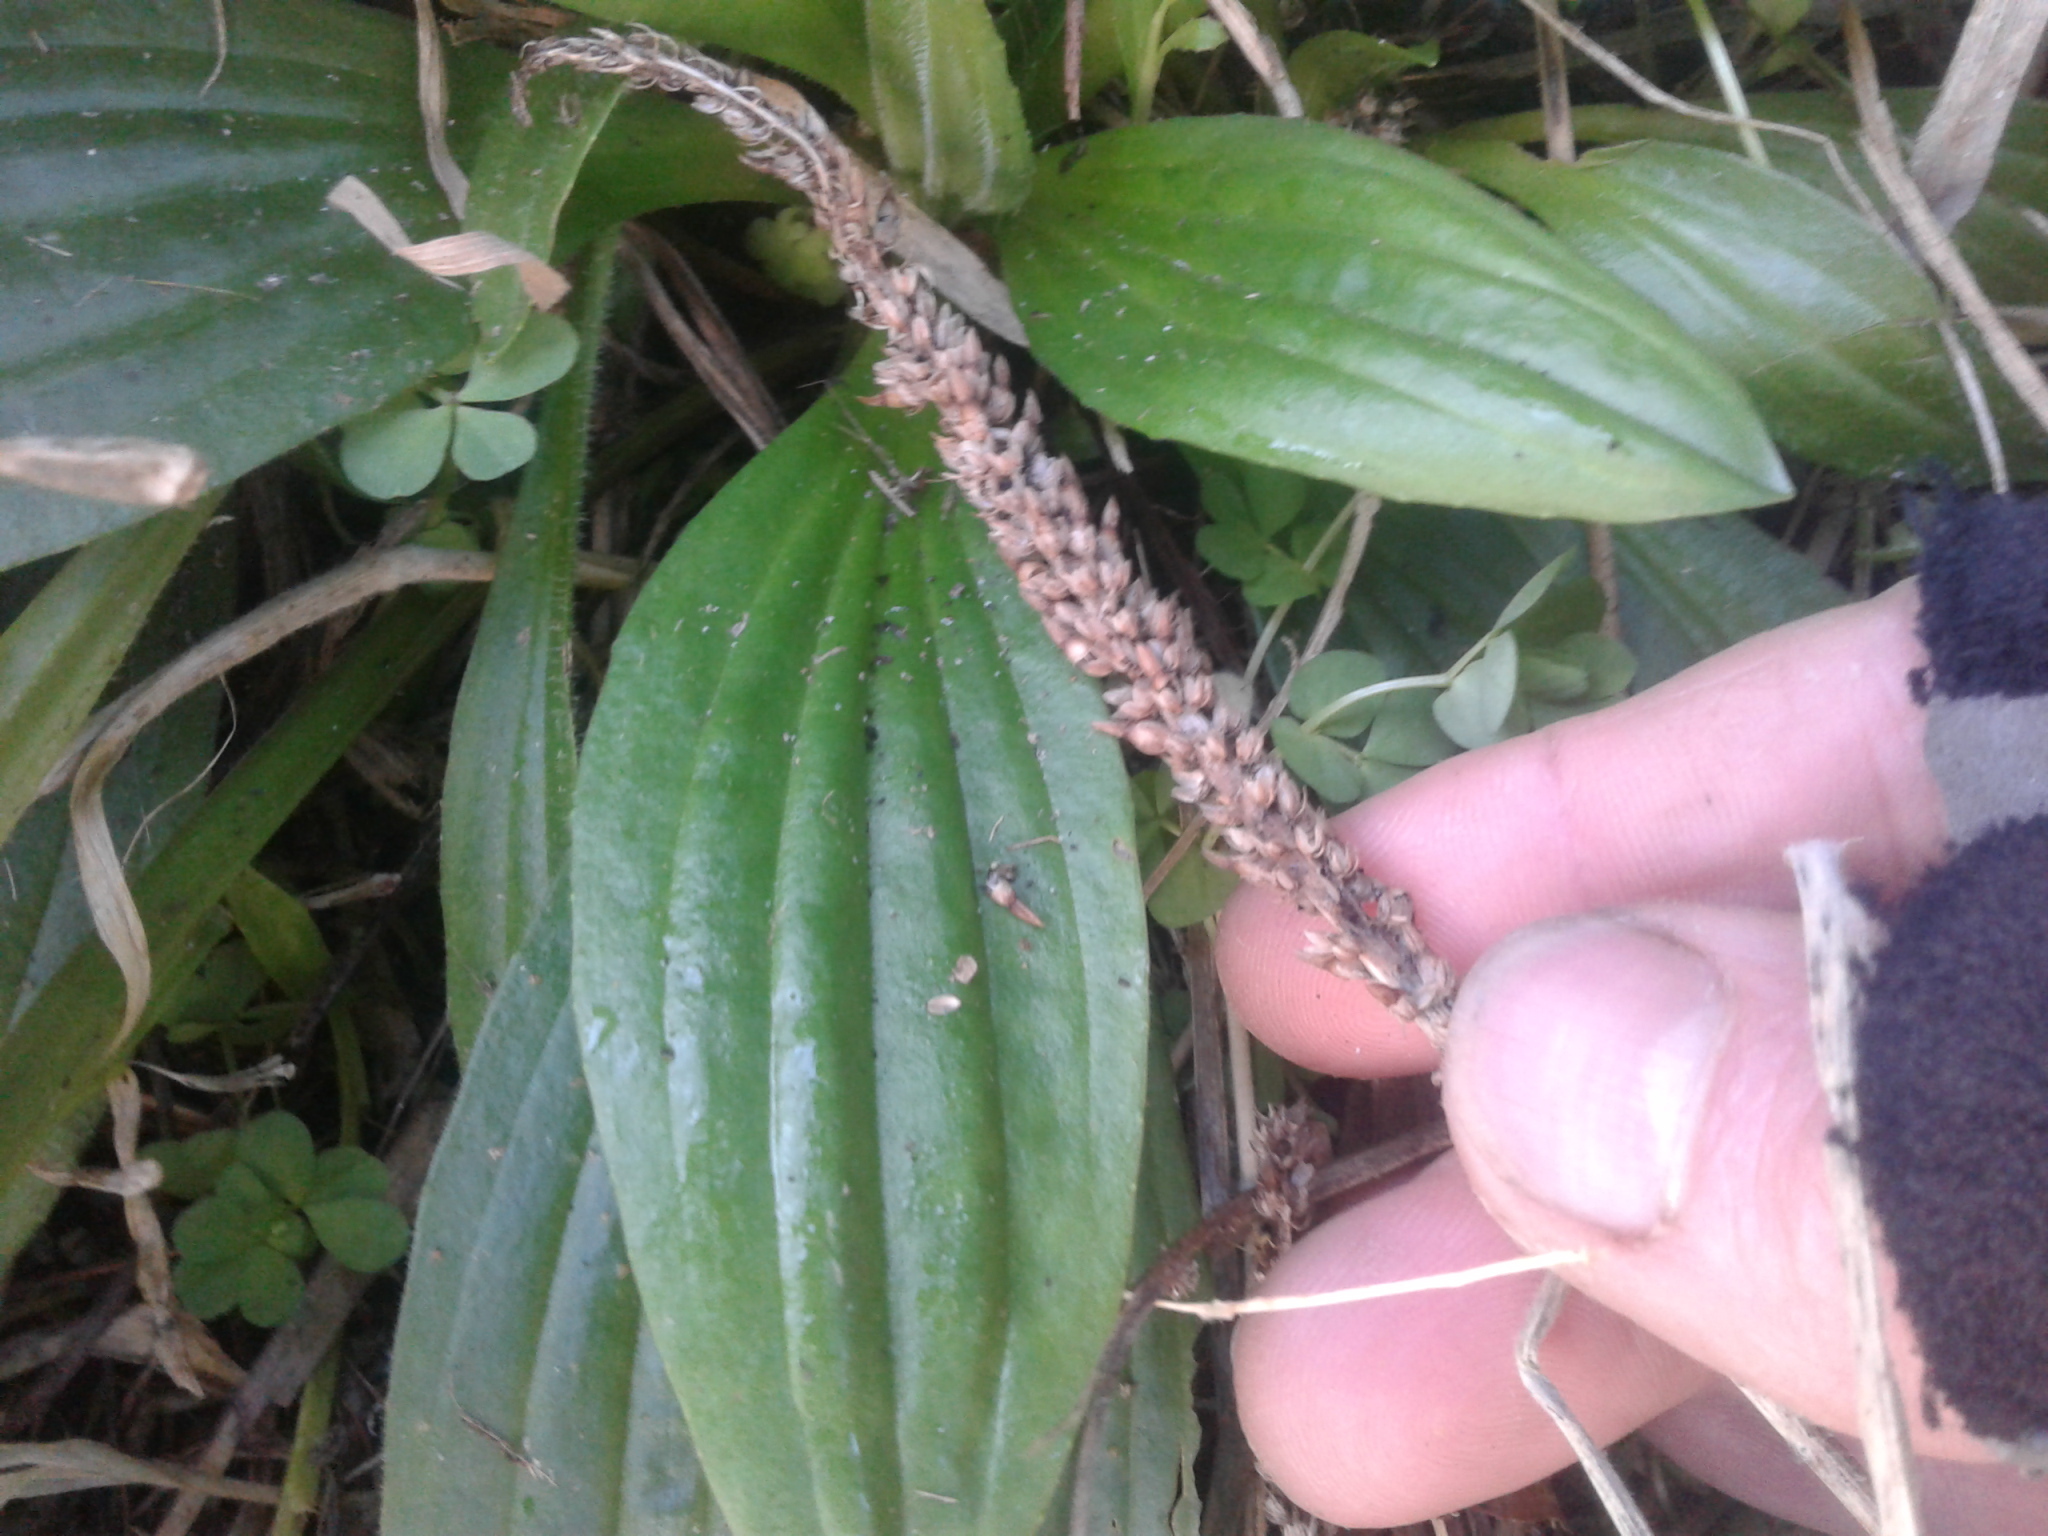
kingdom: Plantae
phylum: Tracheophyta
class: Magnoliopsida
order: Lamiales
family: Plantaginaceae
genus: Plantago
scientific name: Plantago australis
